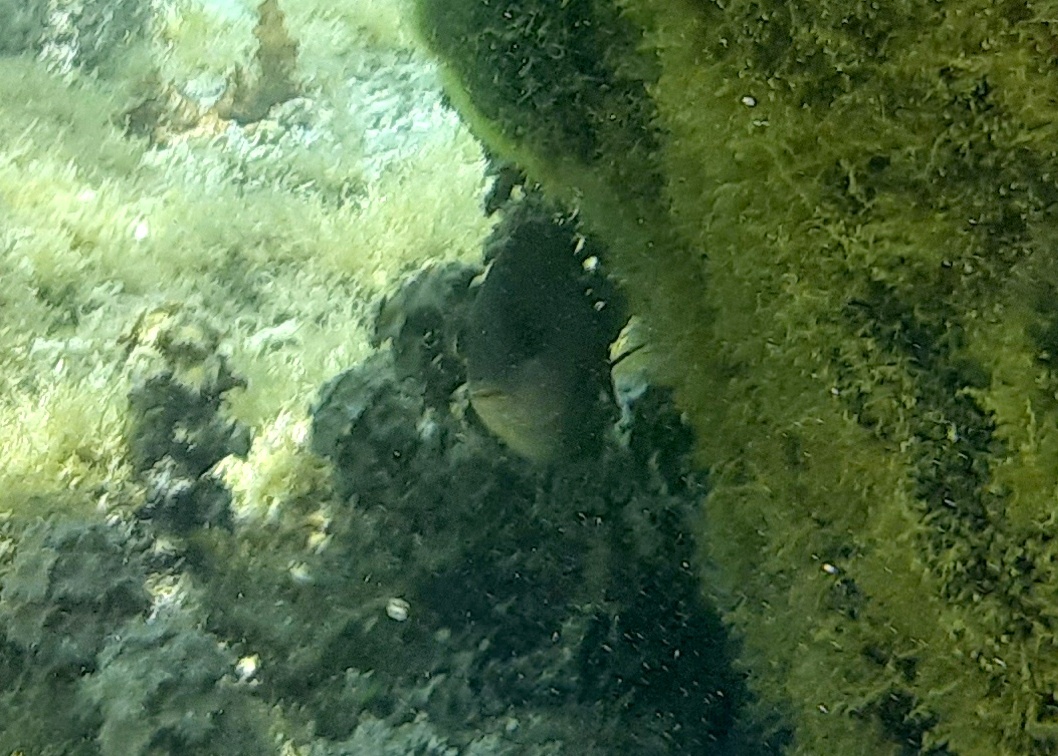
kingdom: Animalia
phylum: Chordata
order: Perciformes
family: Pomacentridae
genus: Stegastes
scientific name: Stegastes nigricans
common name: Dusky gregory
